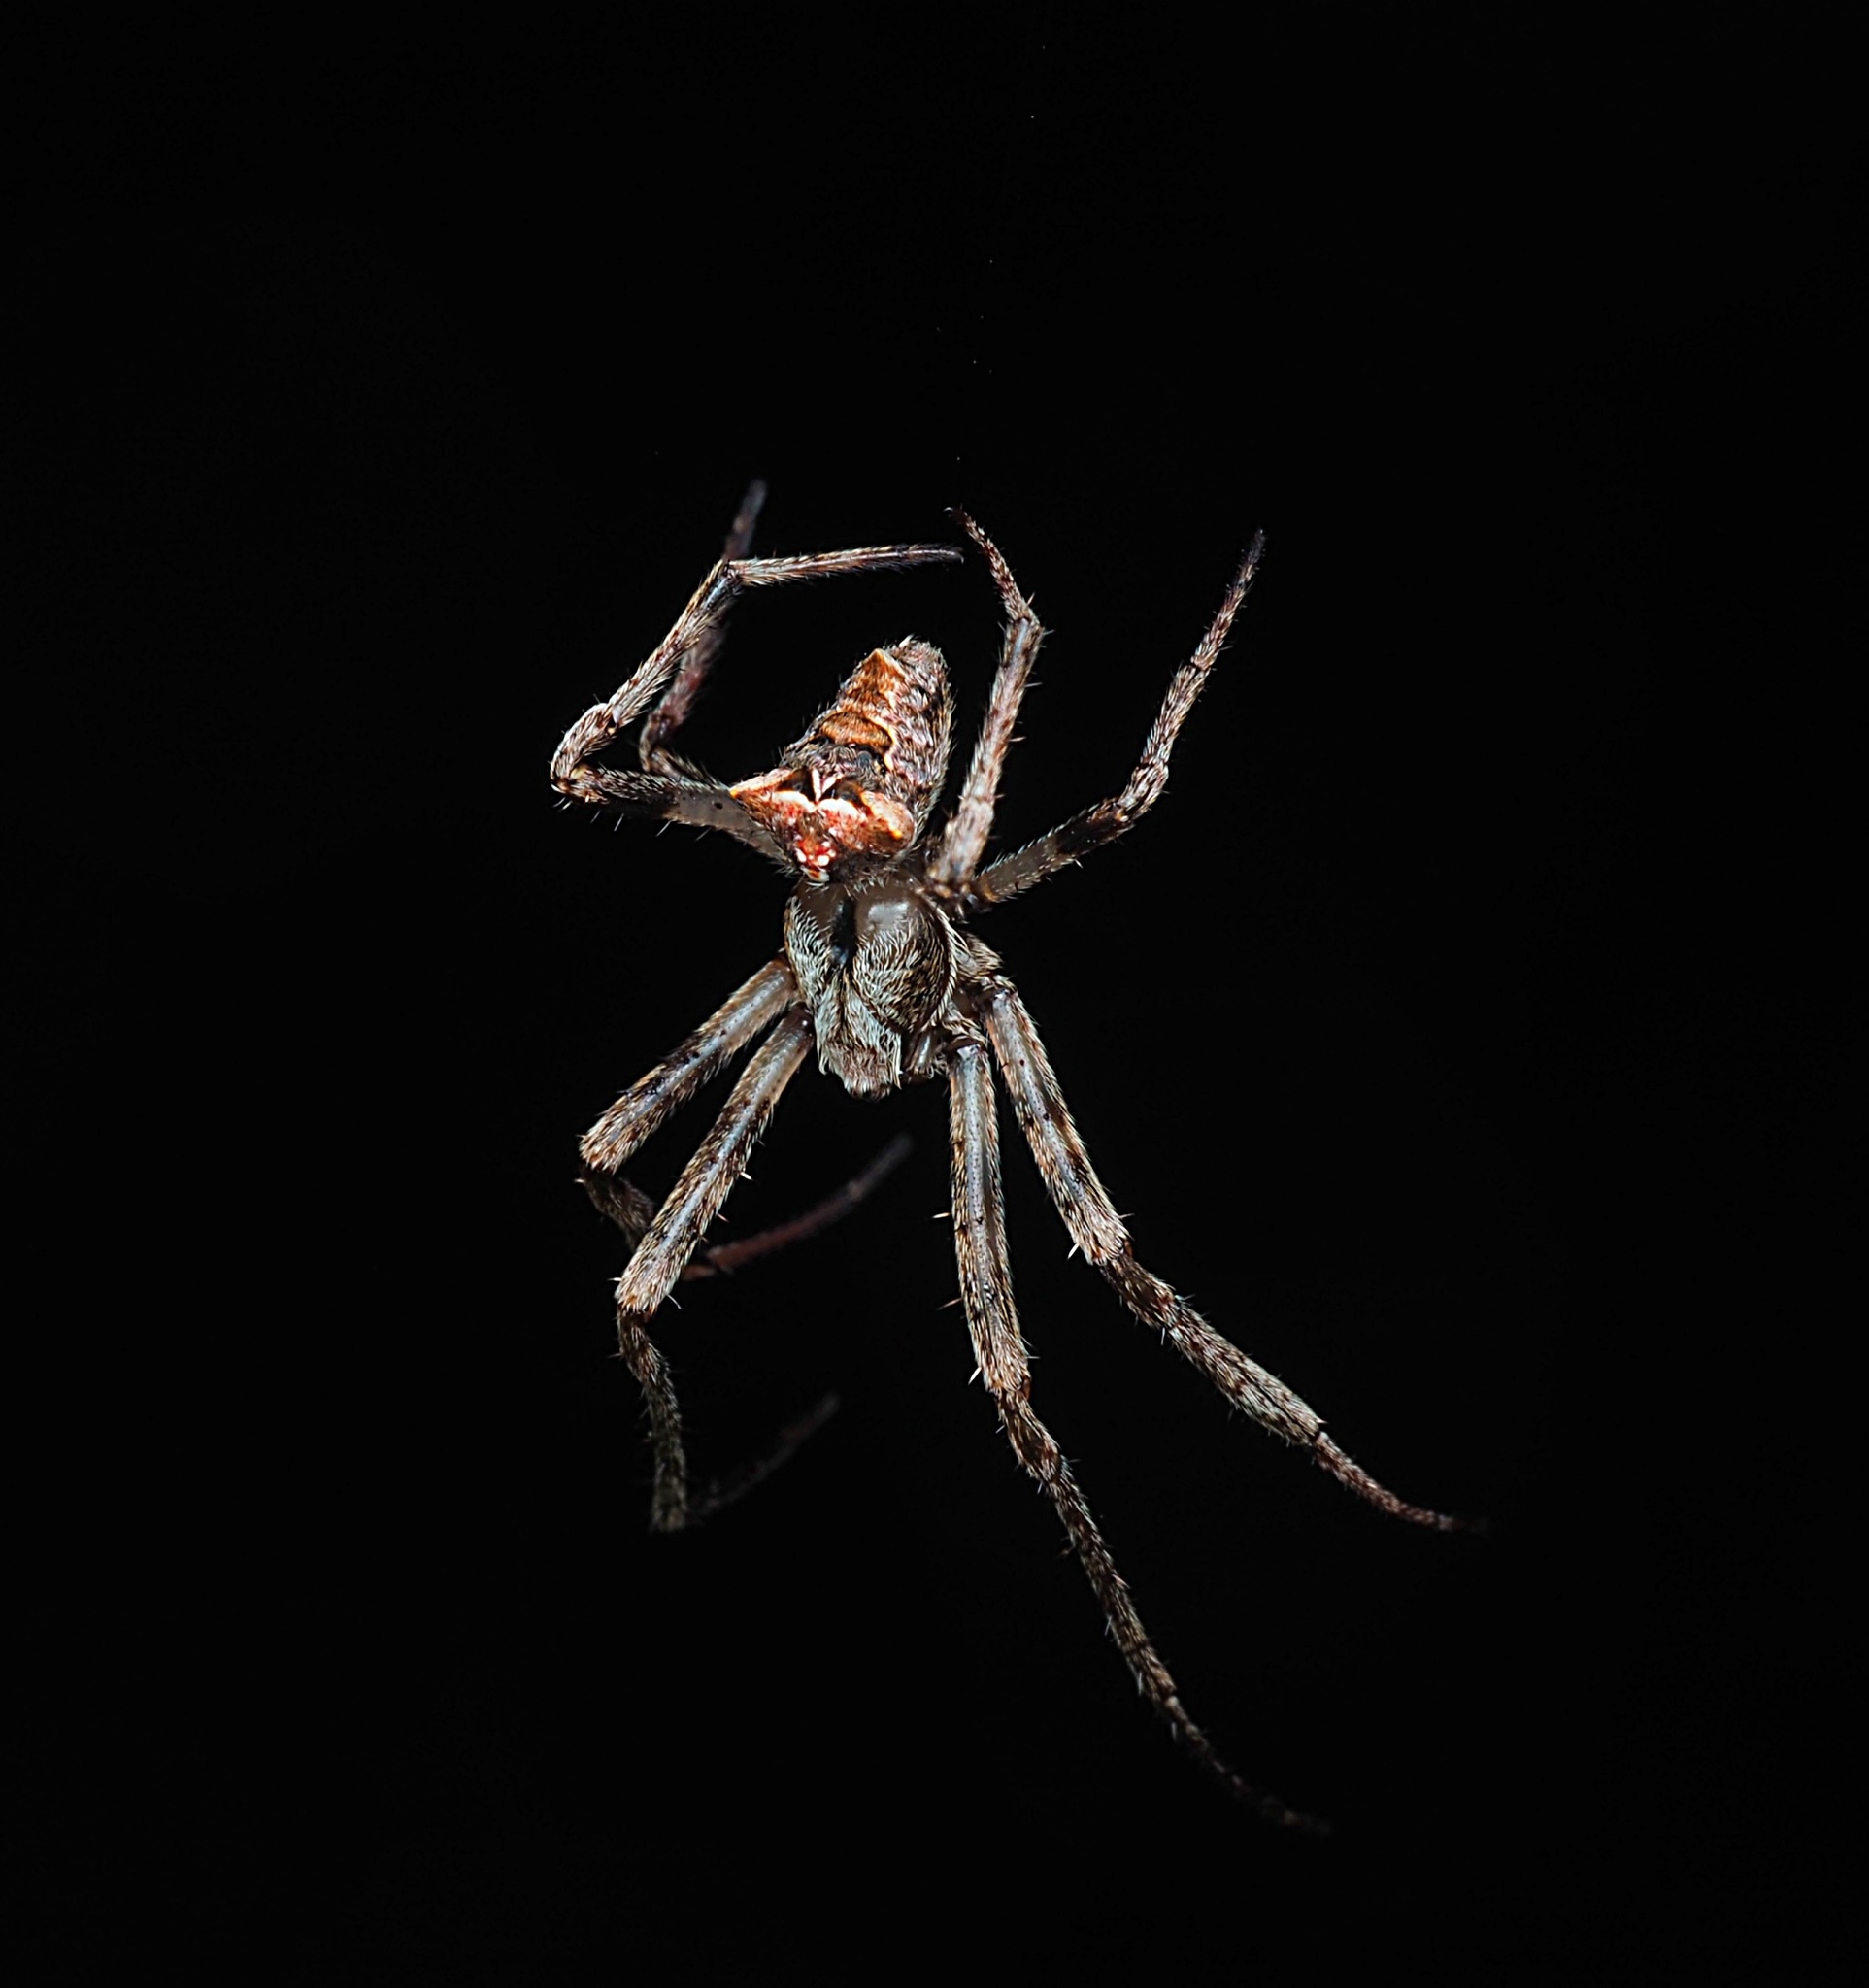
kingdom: Animalia
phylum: Arthropoda
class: Arachnida
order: Araneae
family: Araneidae
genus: Novakiella
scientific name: Novakiella trituberculosa
